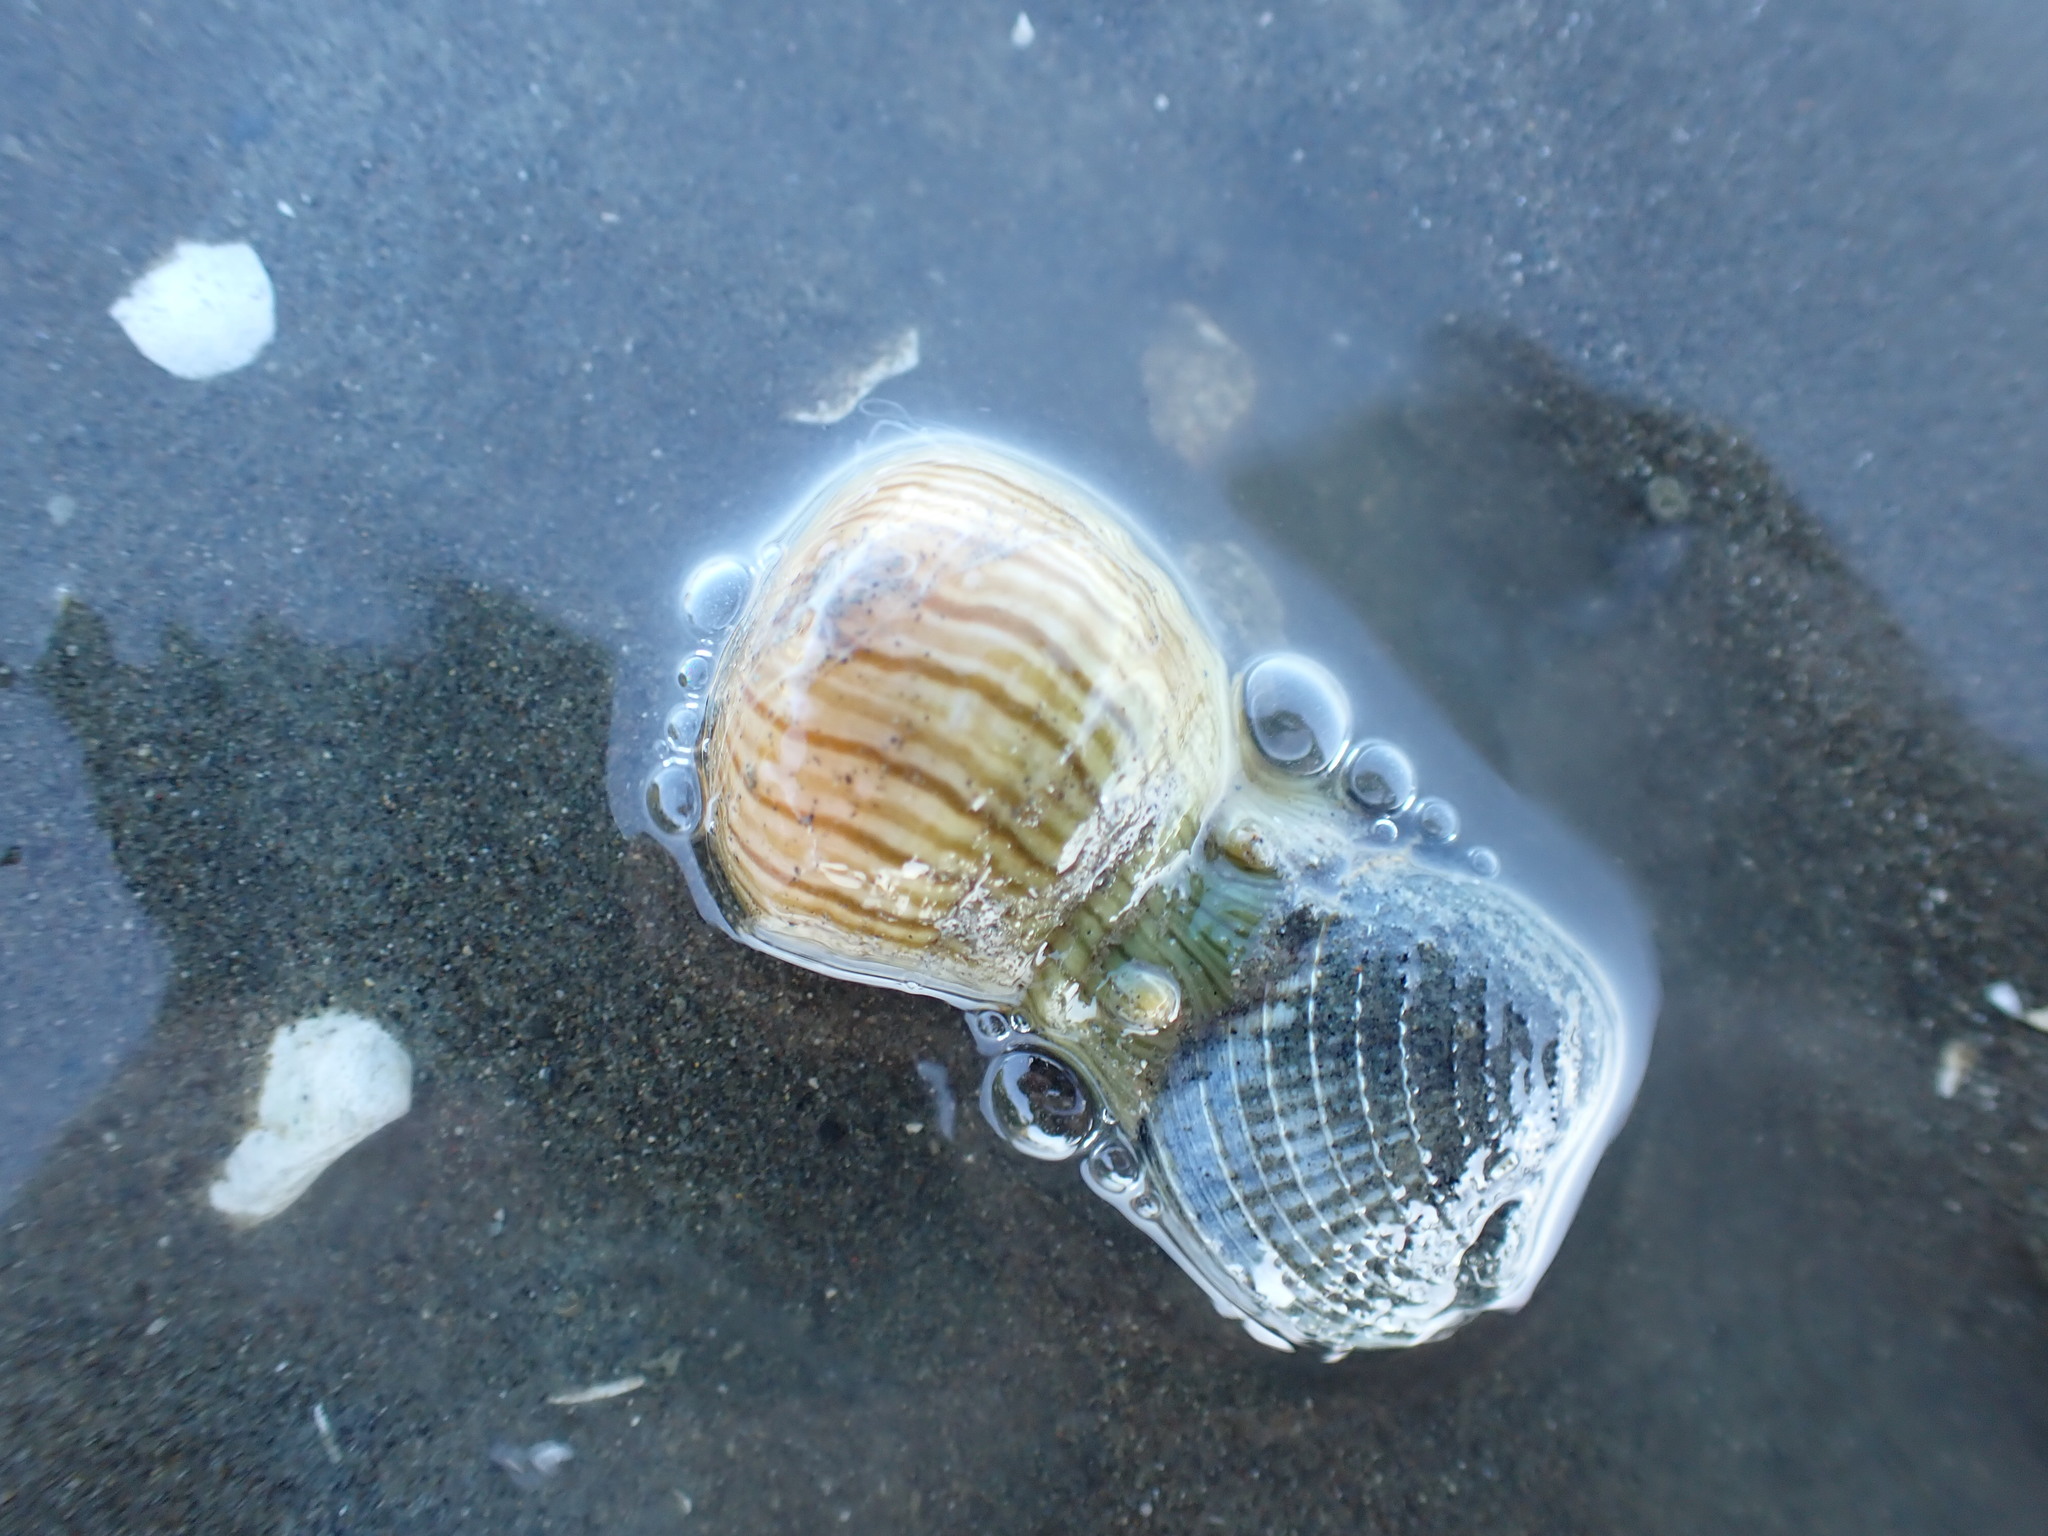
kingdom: Animalia
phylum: Cnidaria
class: Anthozoa
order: Actiniaria
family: Sagartiidae
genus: Anthothoe
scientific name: Anthothoe albocincta
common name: Orange striped anemone
